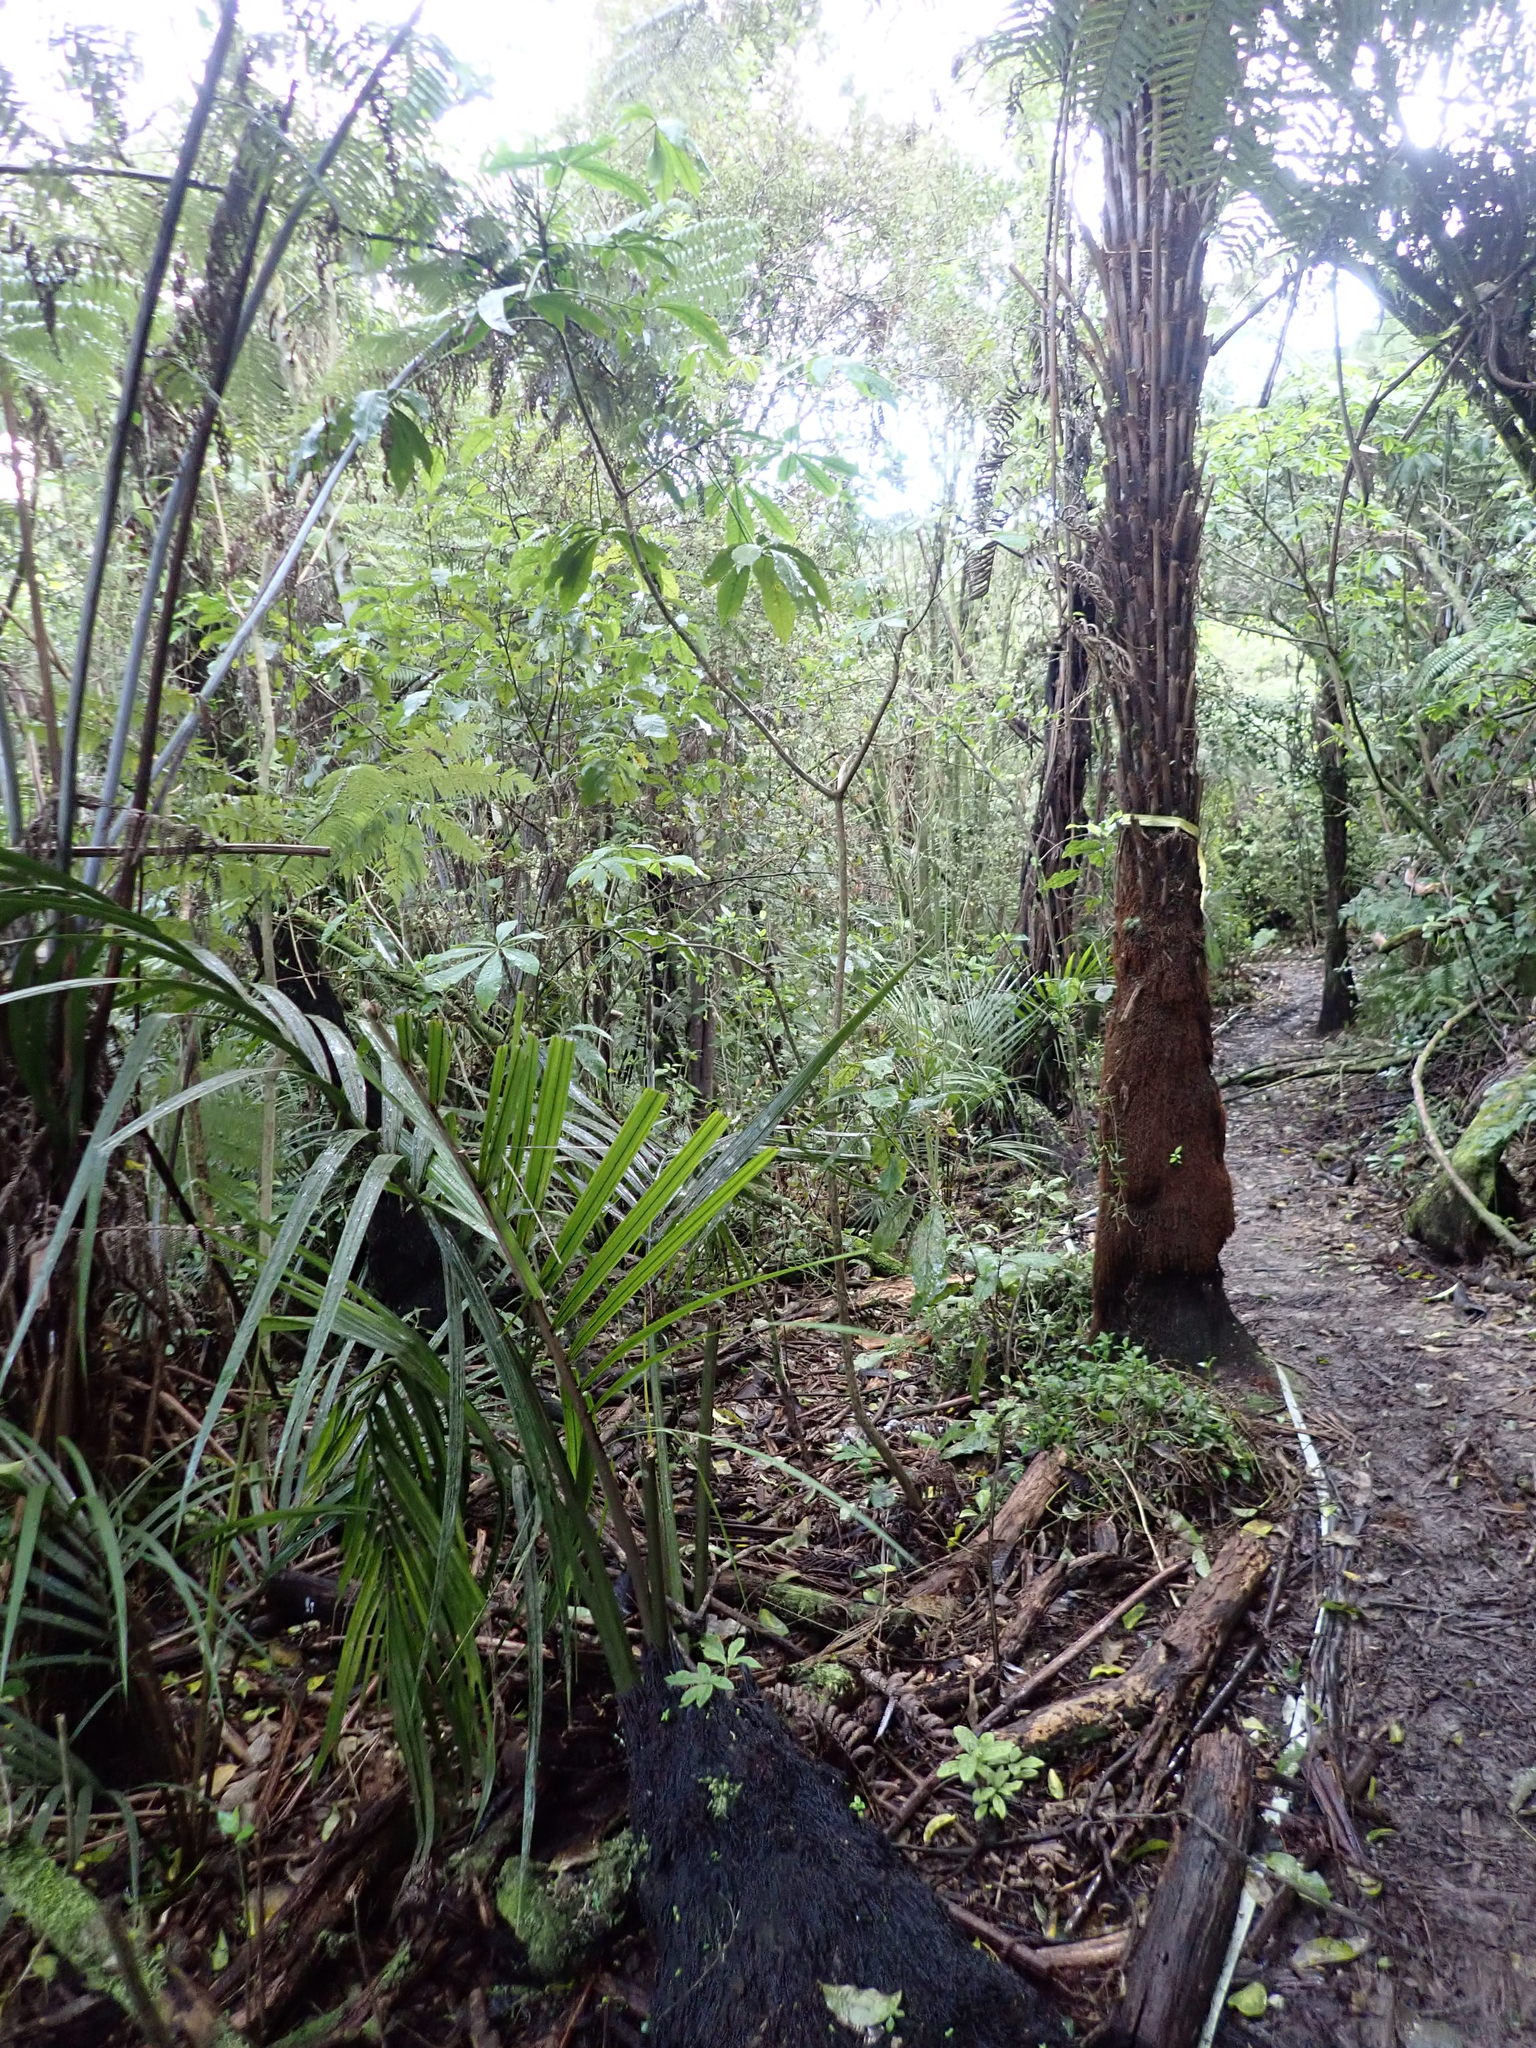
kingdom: Plantae
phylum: Tracheophyta
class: Magnoliopsida
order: Apiales
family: Araliaceae
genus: Schefflera
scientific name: Schefflera digitata
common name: Pate
